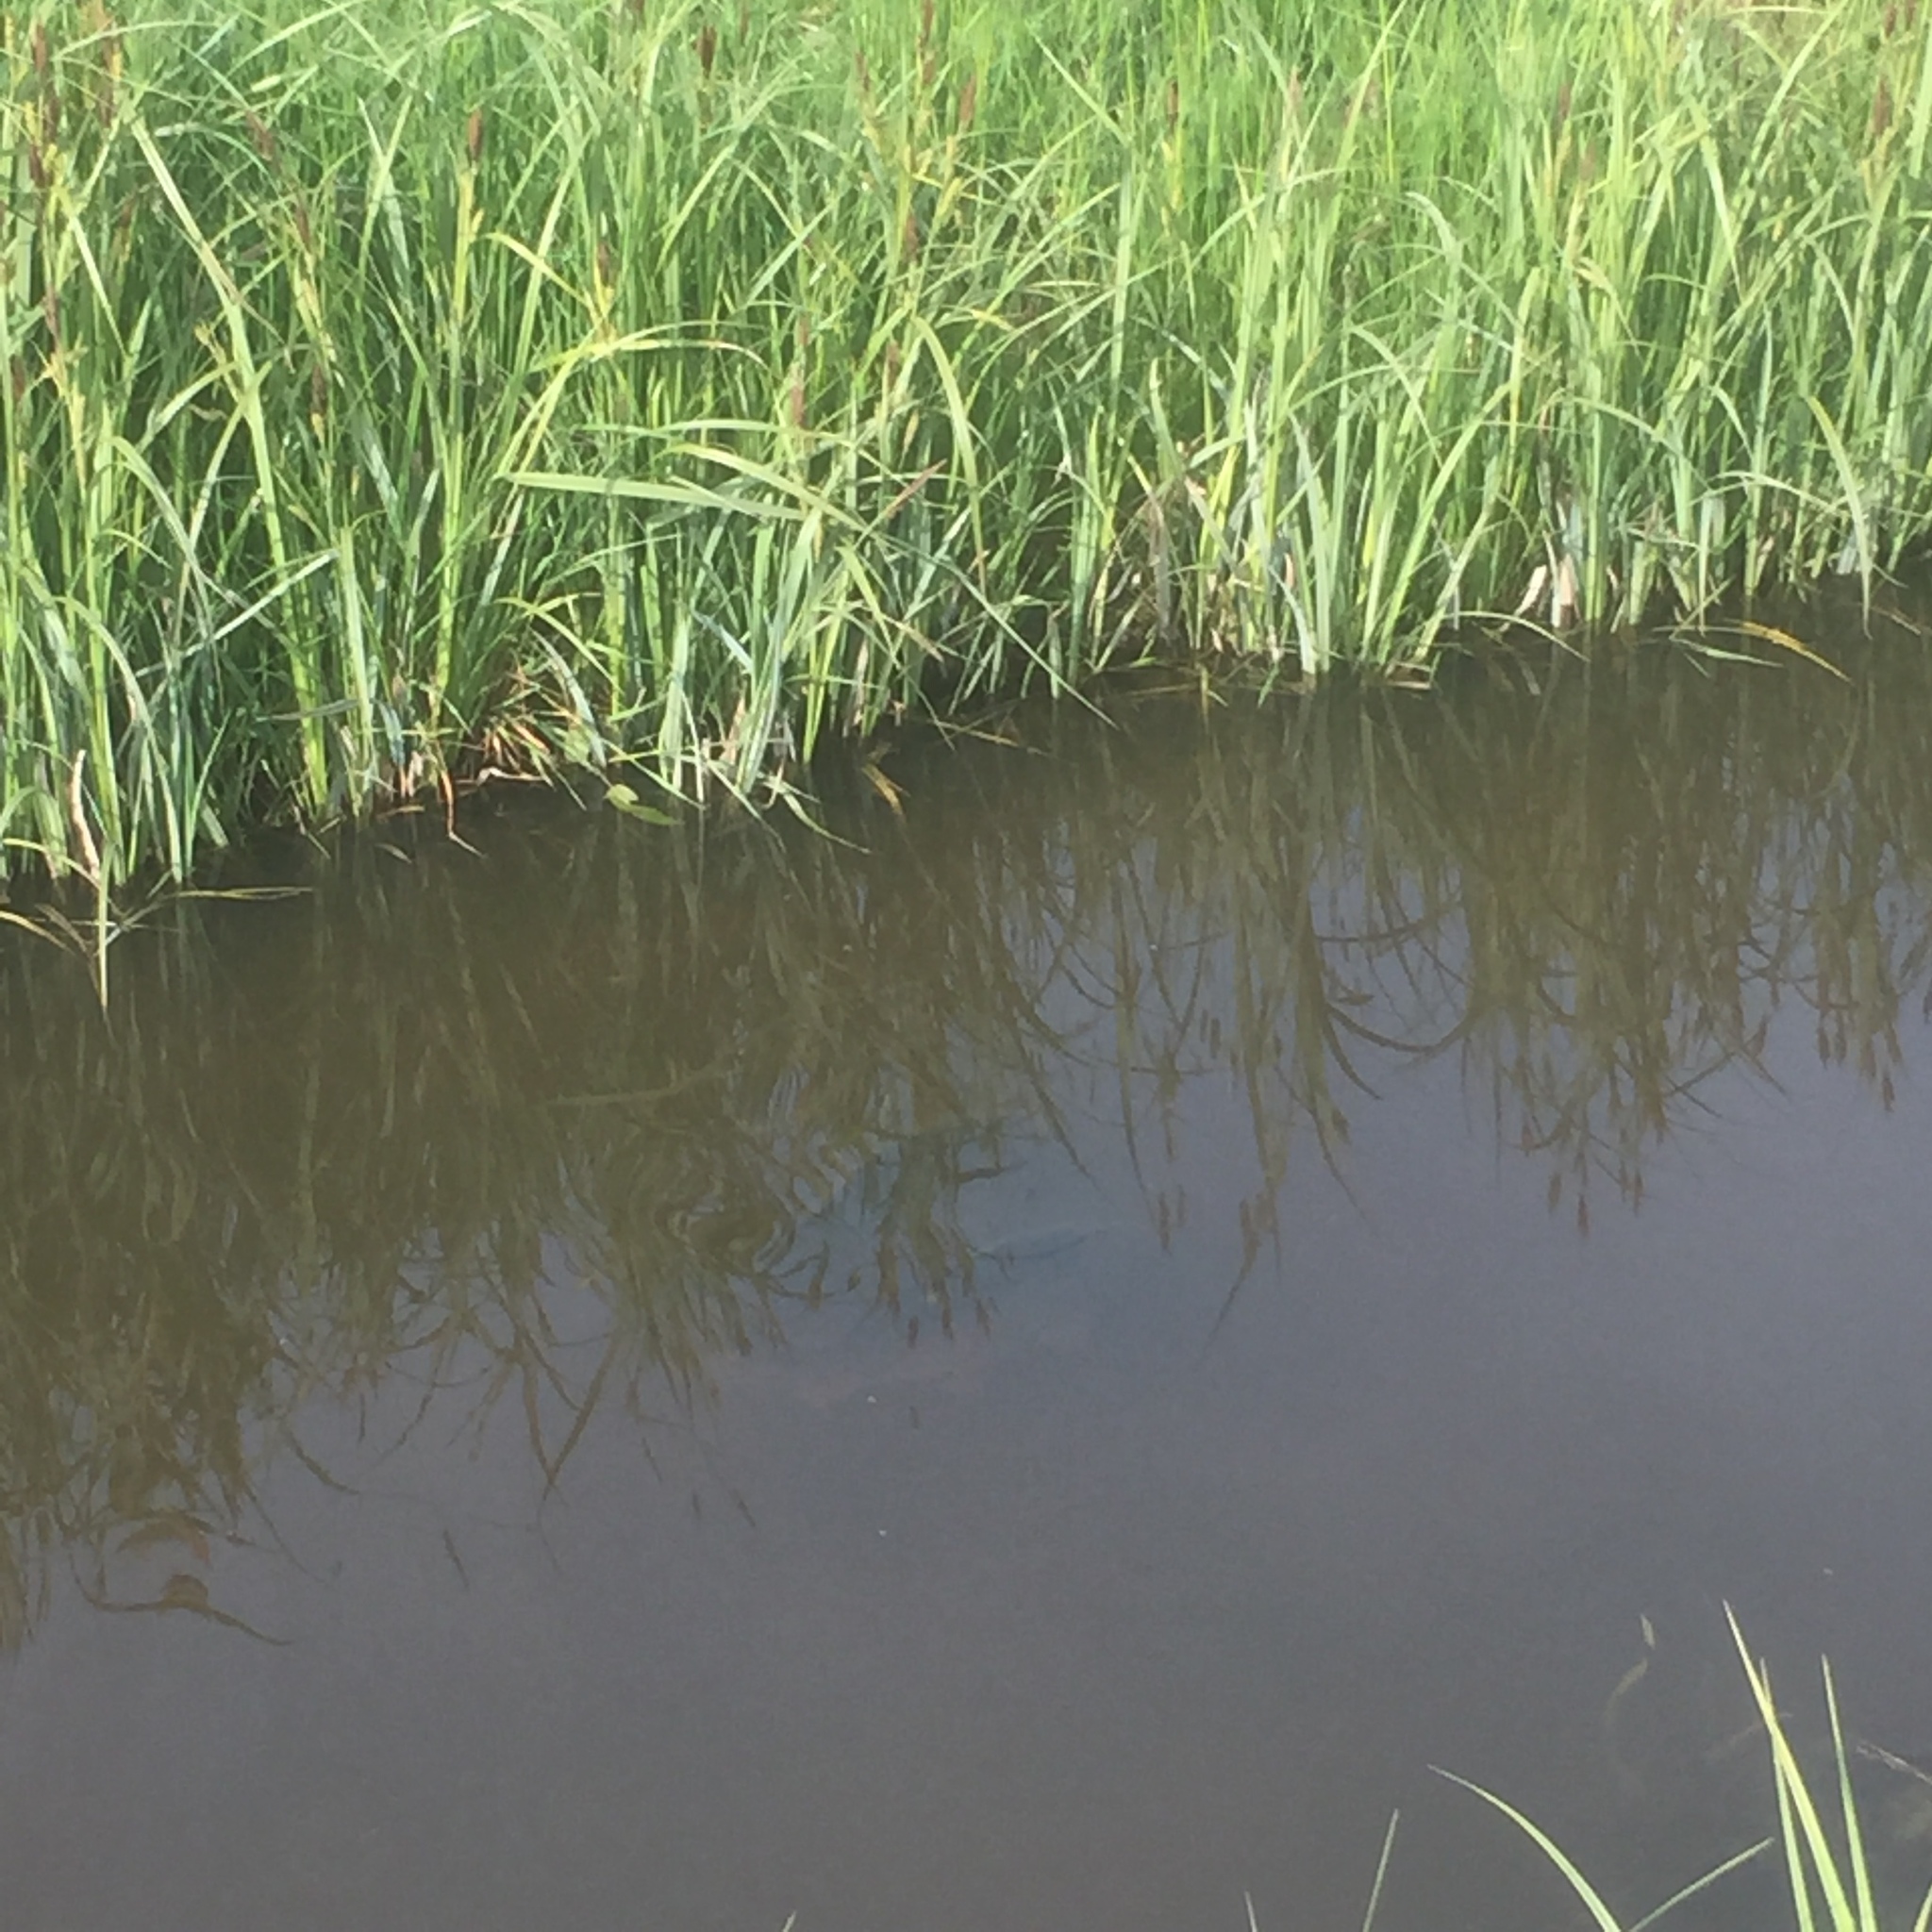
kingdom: Animalia
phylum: Chordata
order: Cypriniformes
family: Cyprinidae
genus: Cyprinus
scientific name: Cyprinus carpio
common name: Common carp
